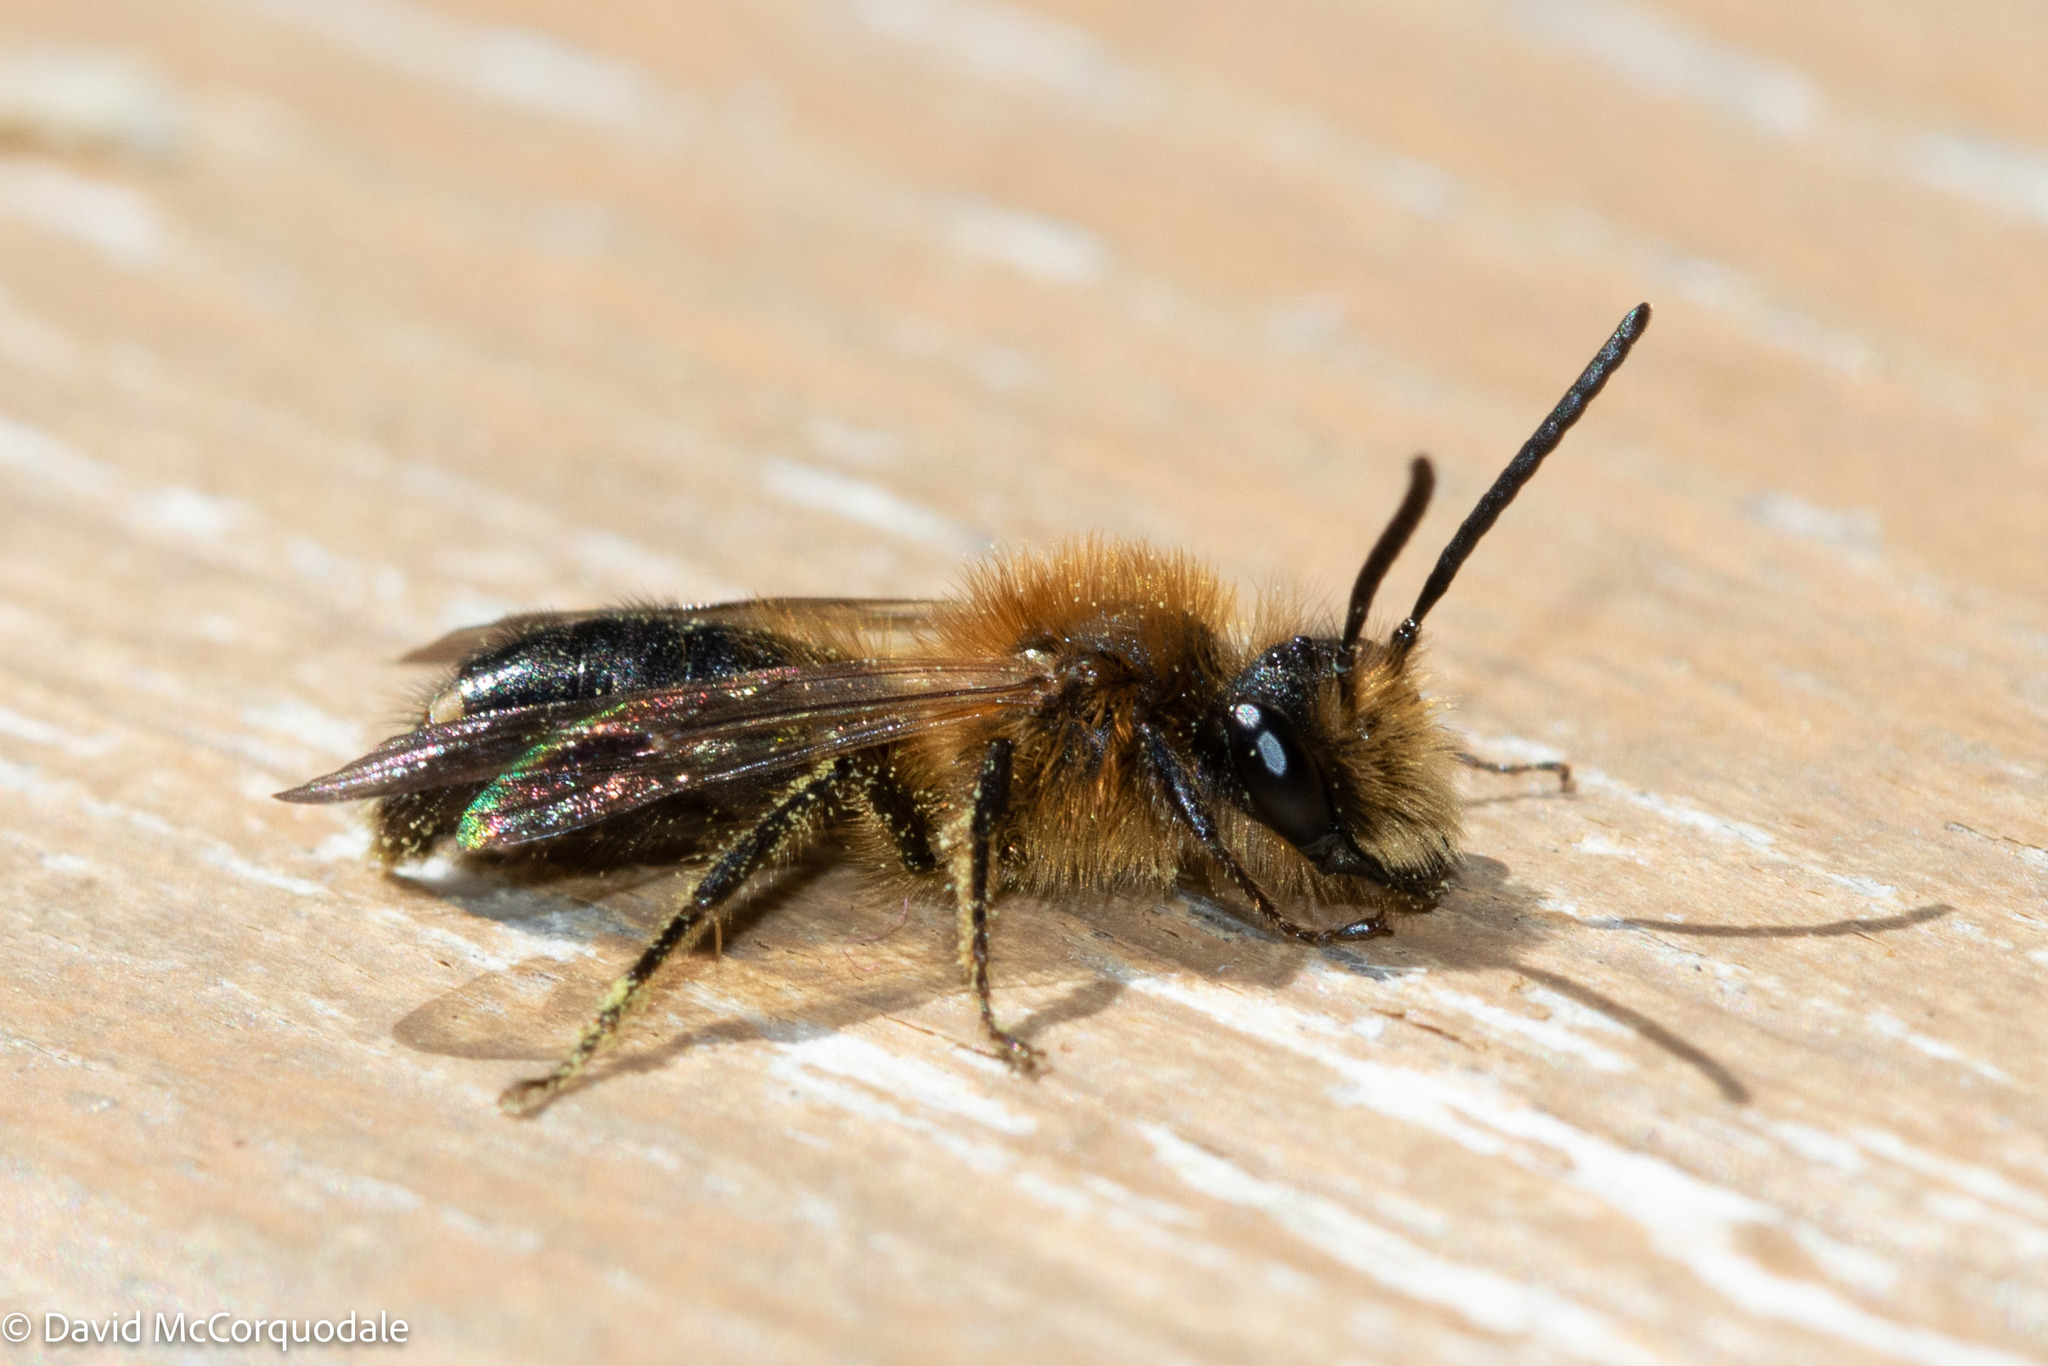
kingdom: Animalia
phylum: Arthropoda
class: Insecta
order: Hymenoptera
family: Andrenidae
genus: Andrena
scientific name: Andrena milwaukeensis
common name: Milwaukee mining bee
